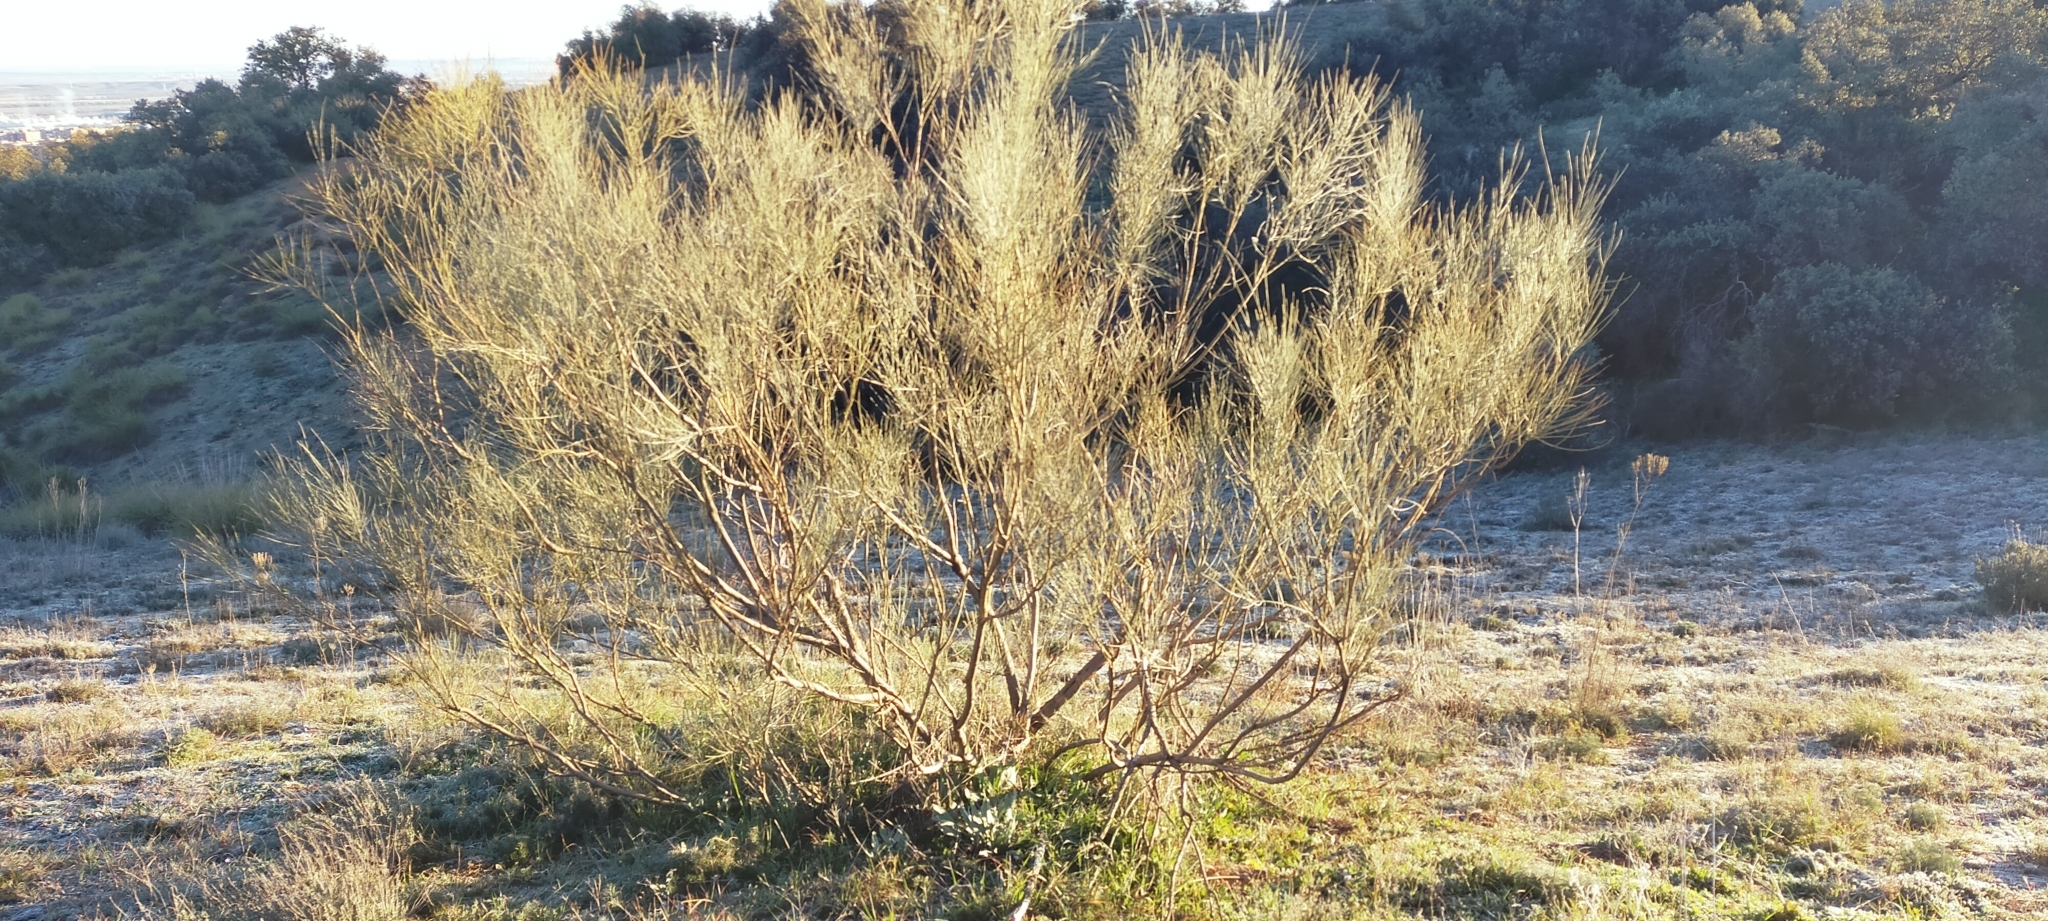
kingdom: Plantae
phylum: Tracheophyta
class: Magnoliopsida
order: Fabales
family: Fabaceae
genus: Retama
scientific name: Retama sphaerocarpa
